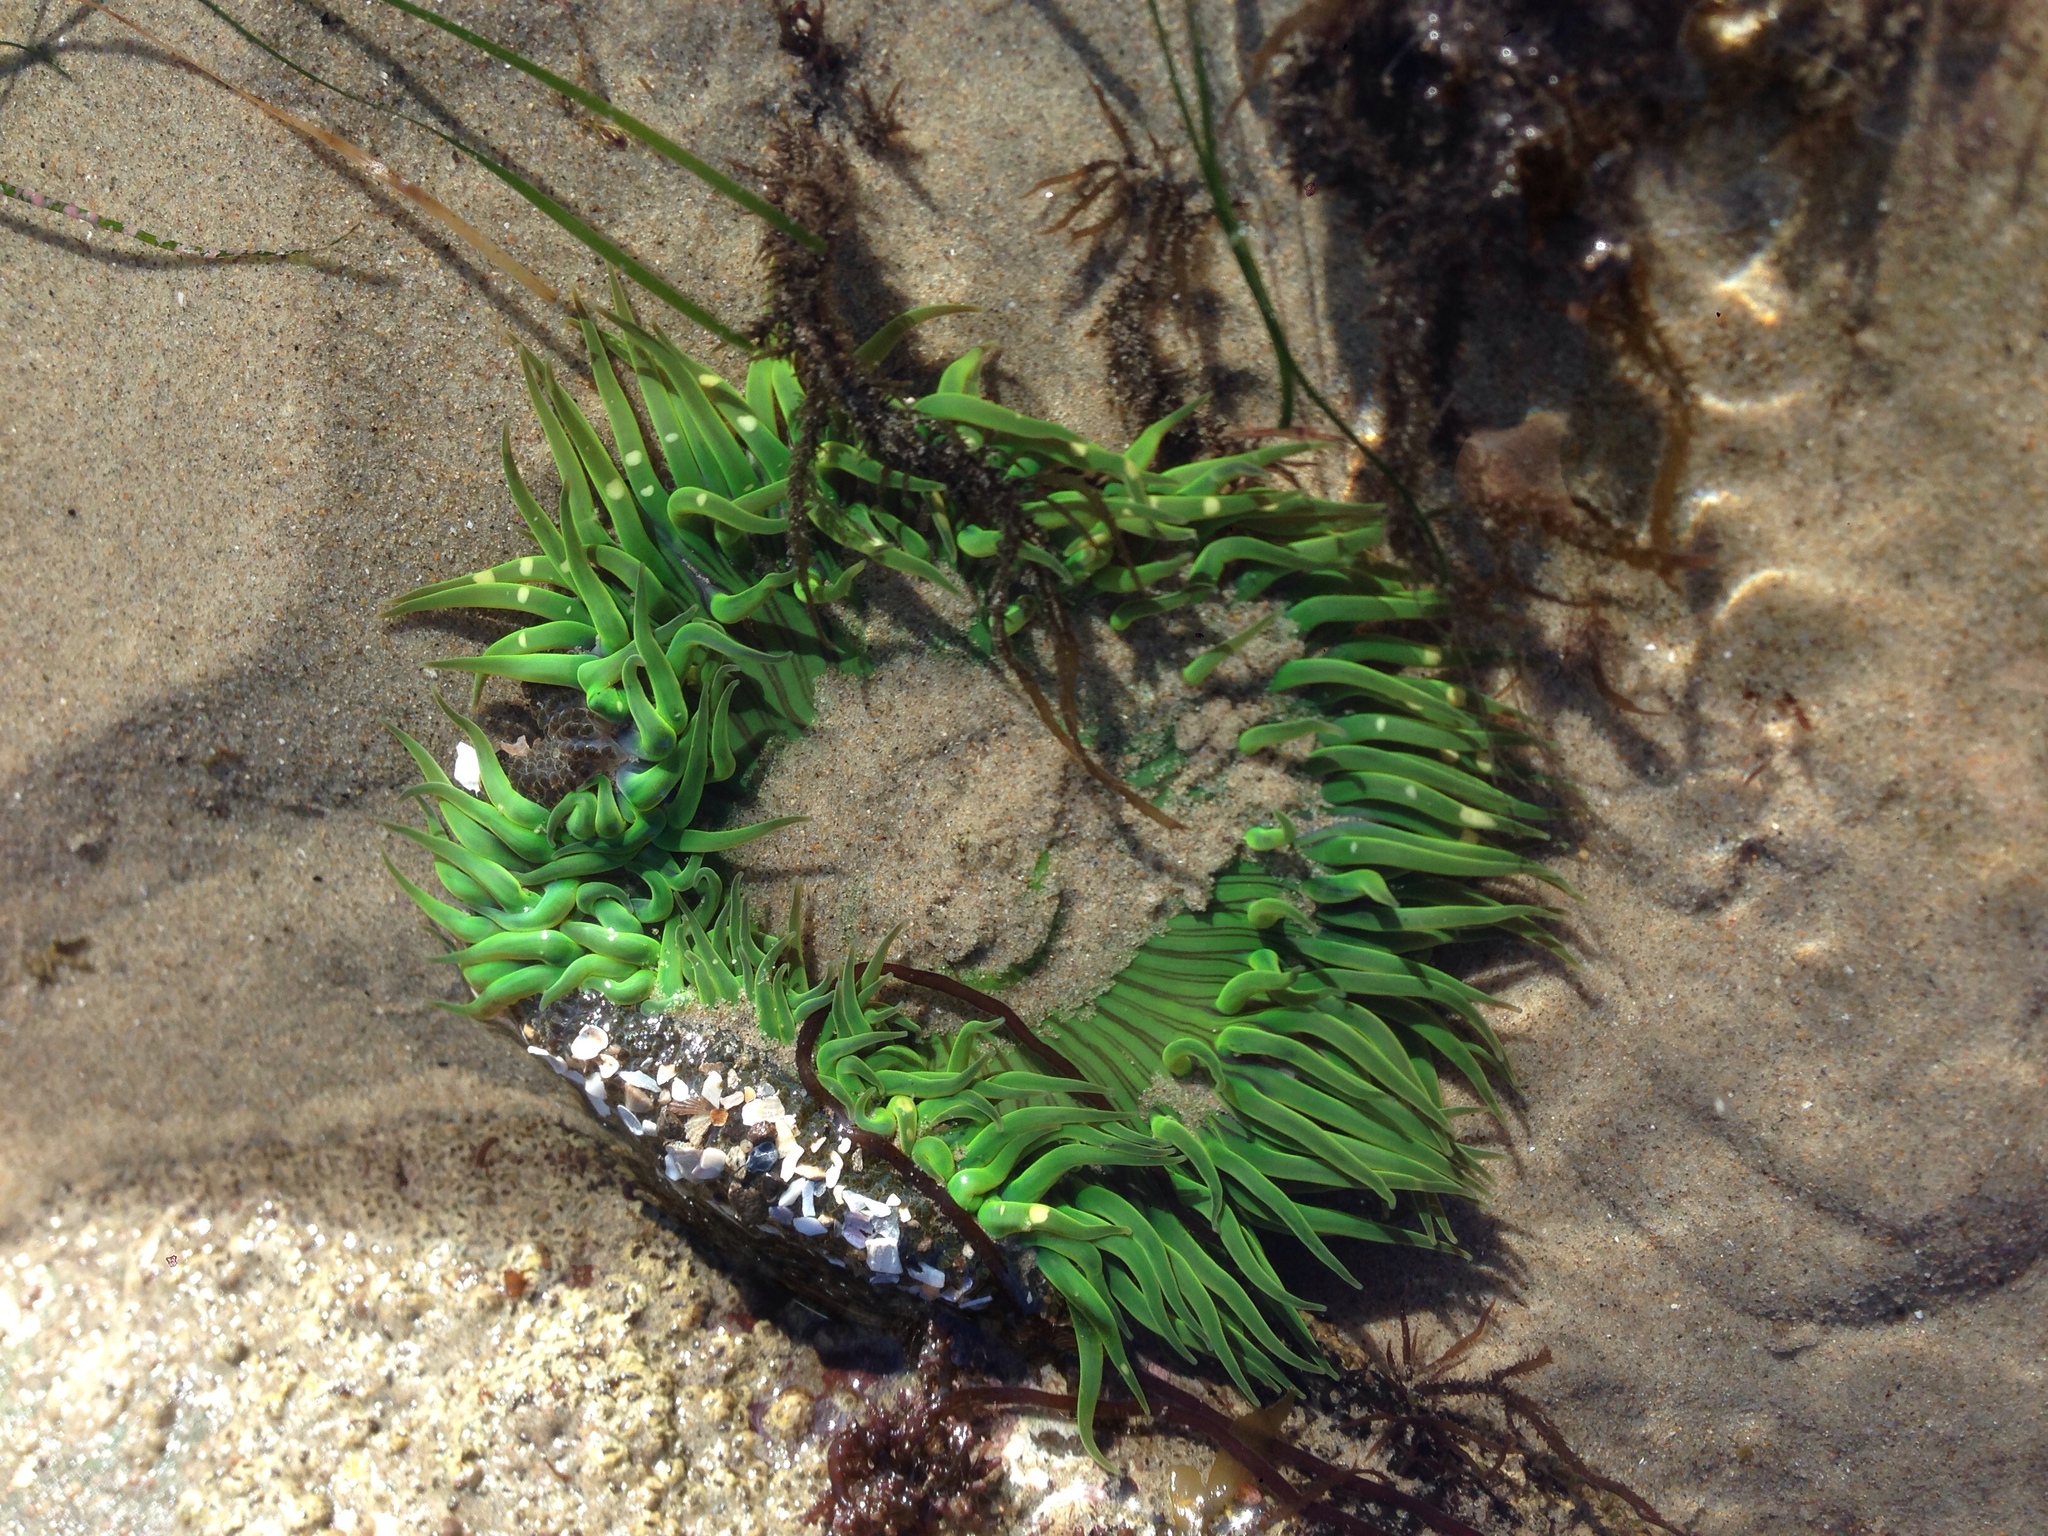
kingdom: Animalia
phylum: Cnidaria
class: Anthozoa
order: Actiniaria
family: Actiniidae
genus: Anthopleura
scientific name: Anthopleura sola
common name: Sun anemone
